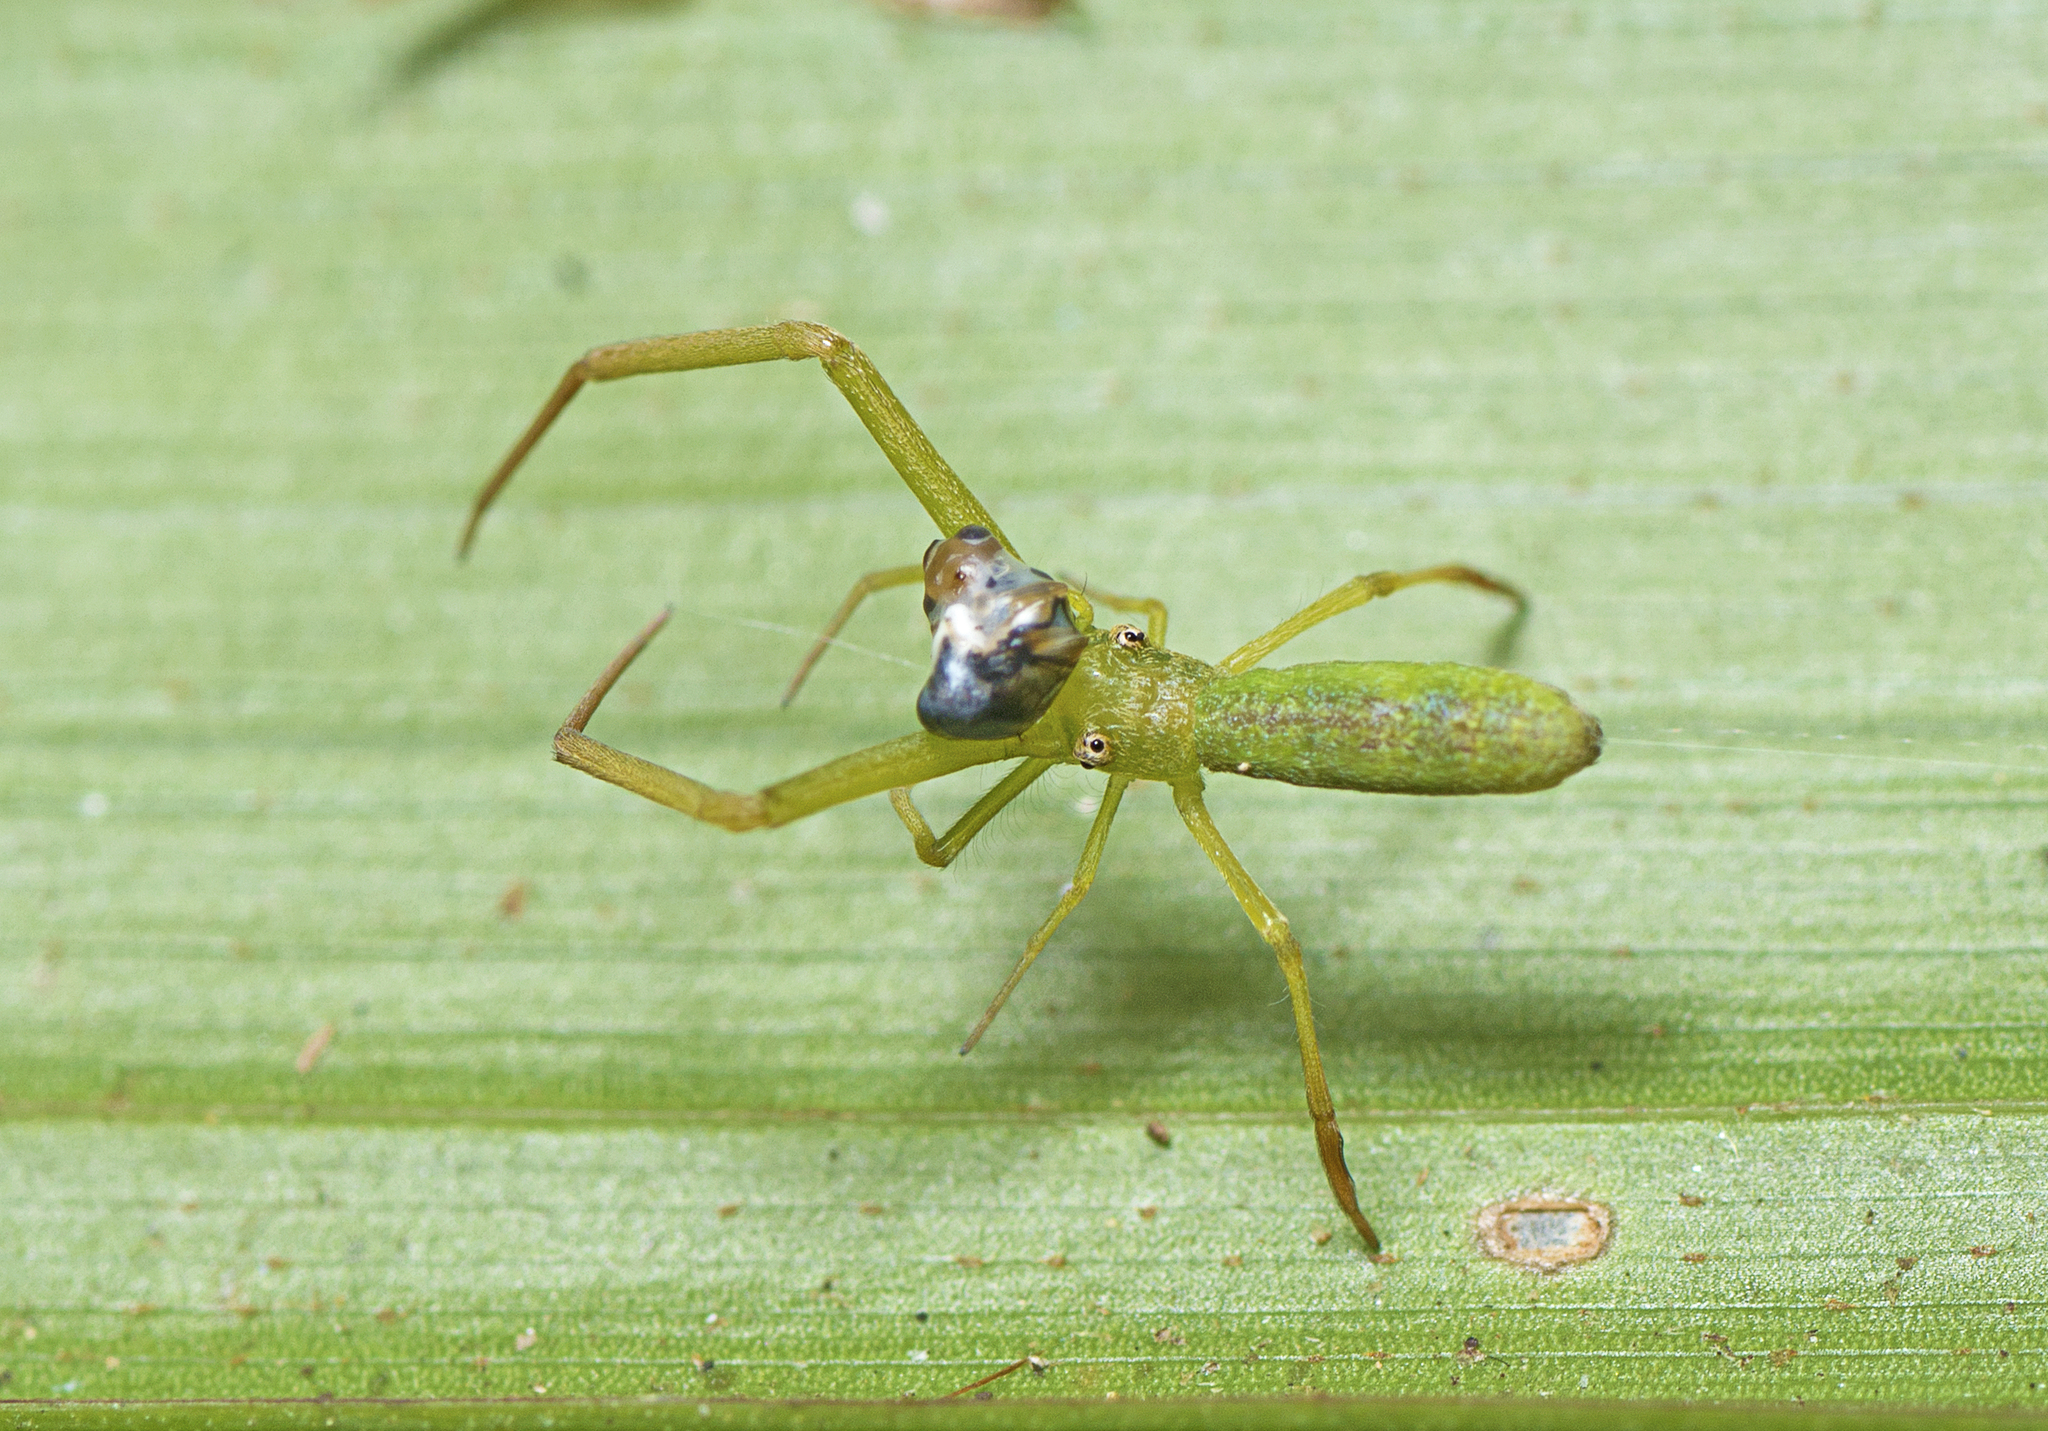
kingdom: Animalia
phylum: Arthropoda
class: Arachnida
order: Araneae
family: Uloboridae
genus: Miagrammopes
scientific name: Miagrammopes flavus
